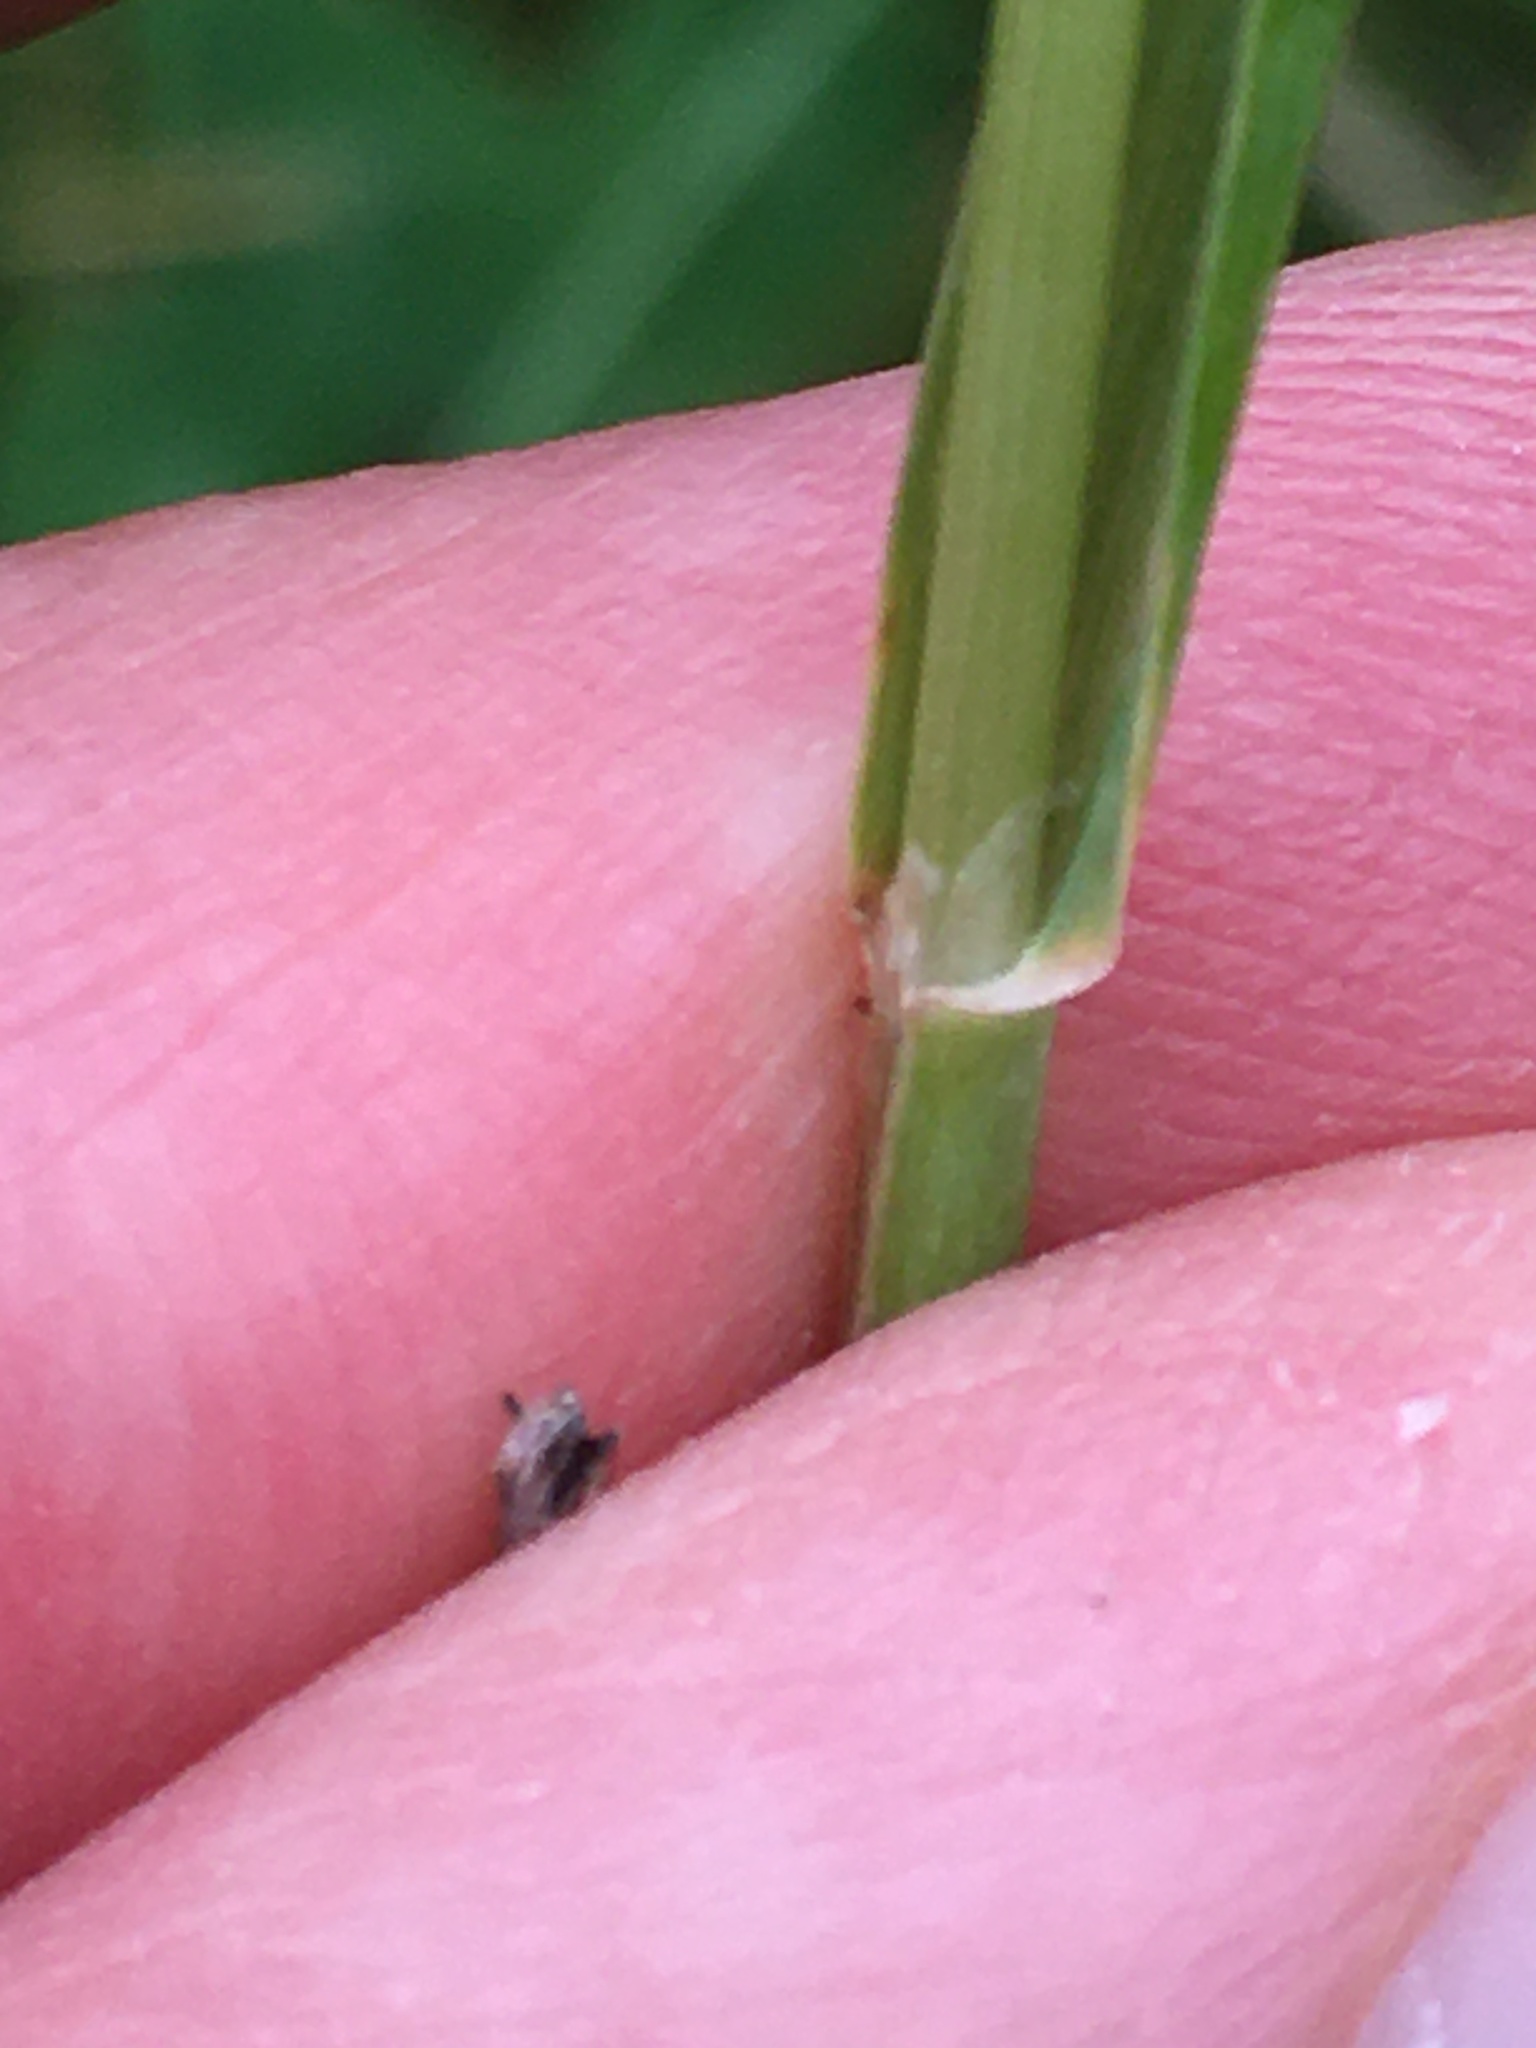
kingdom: Plantae
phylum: Tracheophyta
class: Liliopsida
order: Poales
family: Poaceae
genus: Phleum
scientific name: Phleum pratense
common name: Timothy grass
